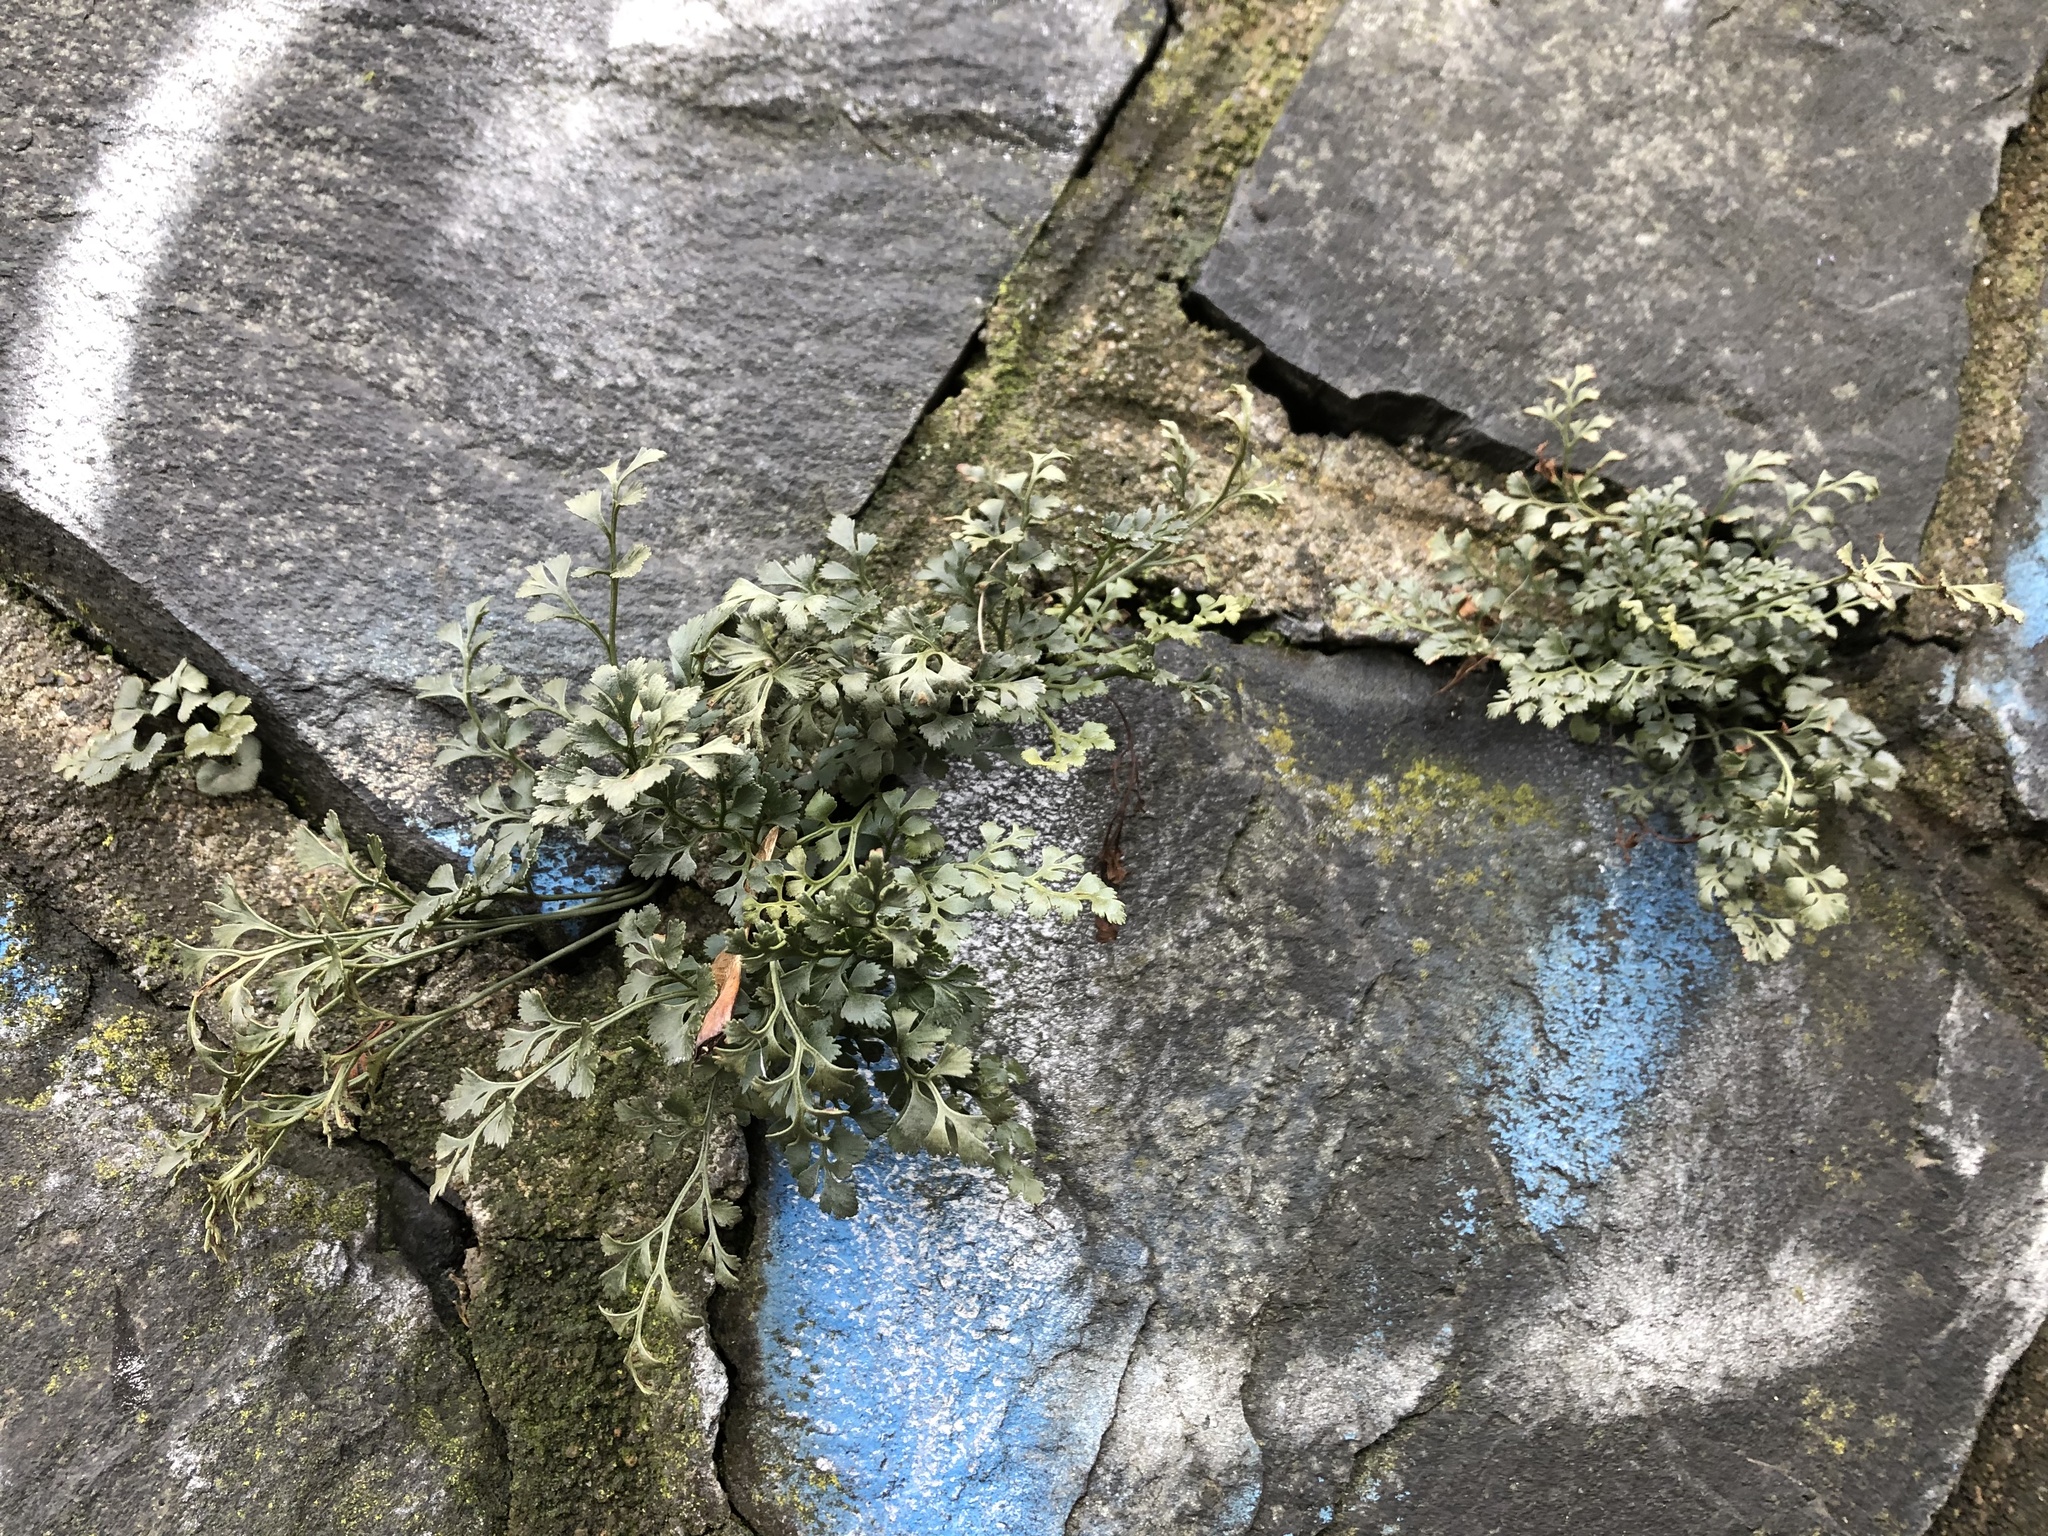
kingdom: Plantae
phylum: Tracheophyta
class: Polypodiopsida
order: Polypodiales
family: Aspleniaceae
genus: Asplenium
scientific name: Asplenium ruta-muraria
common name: Wall-rue
